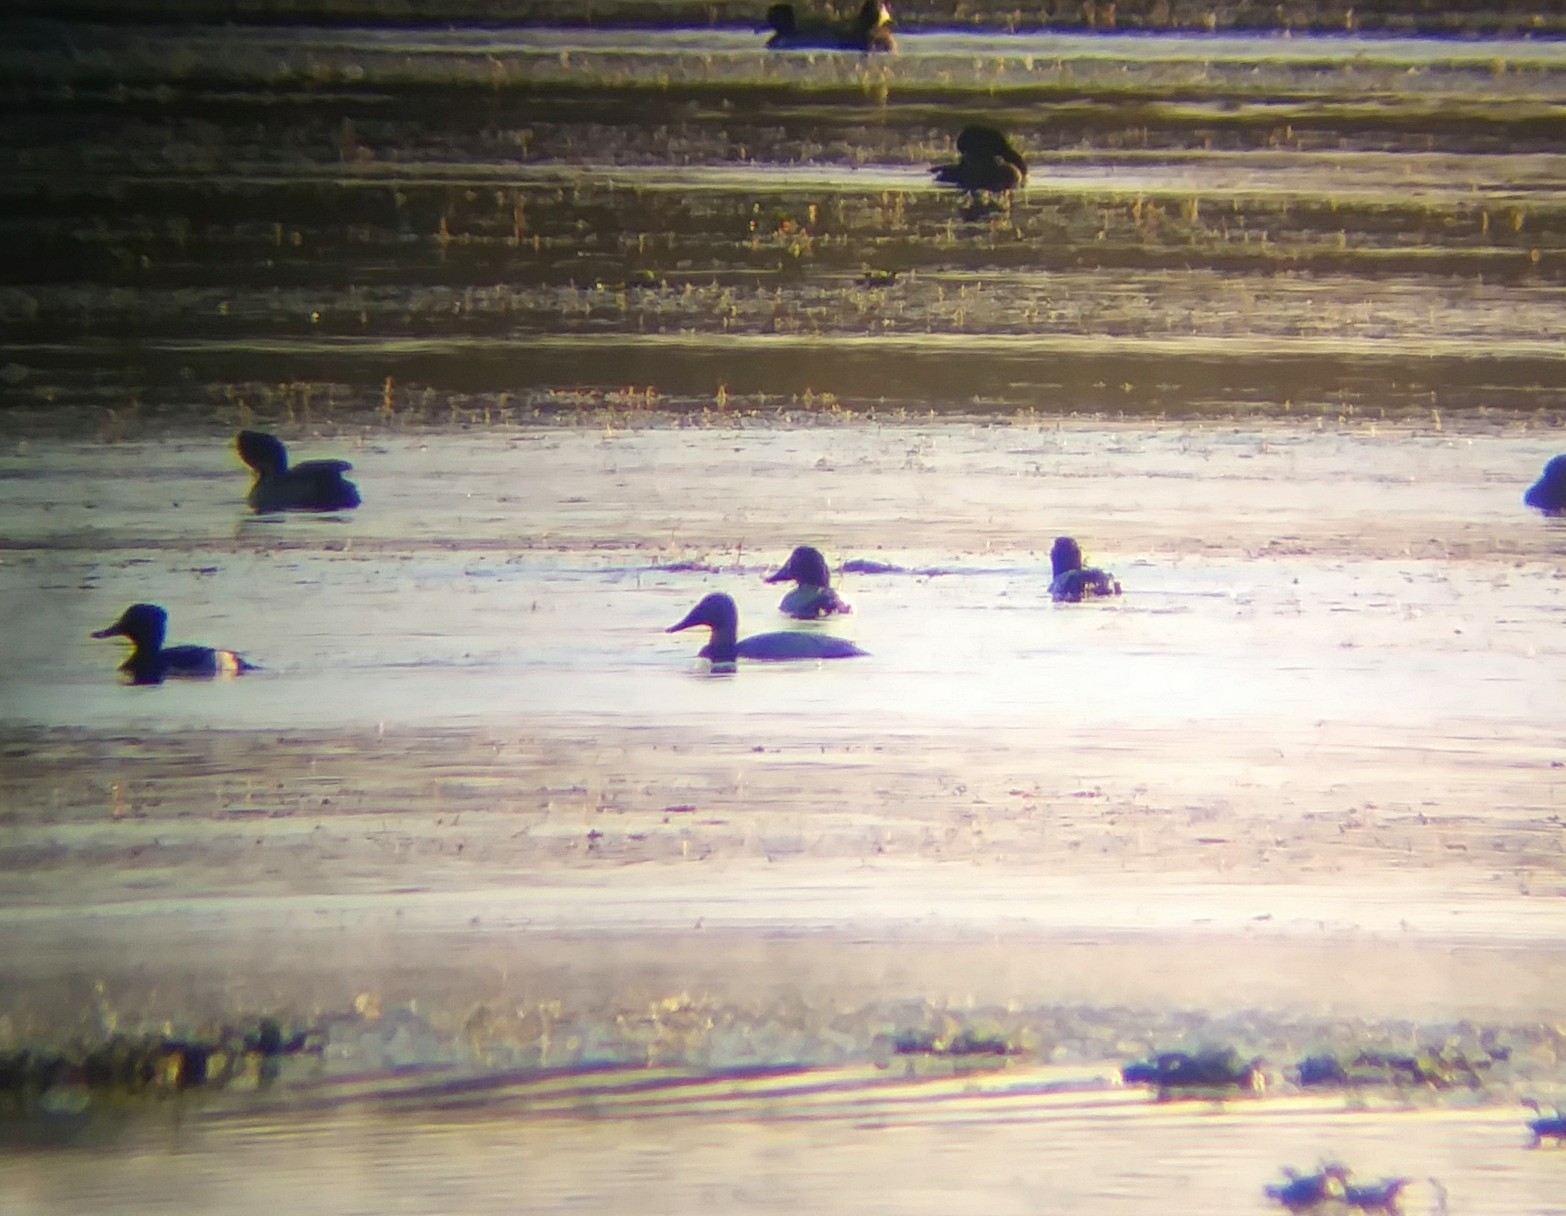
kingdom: Animalia
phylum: Chordata
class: Aves
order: Anseriformes
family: Anatidae
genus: Aythya
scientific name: Aythya valisineria
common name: Canvasback
